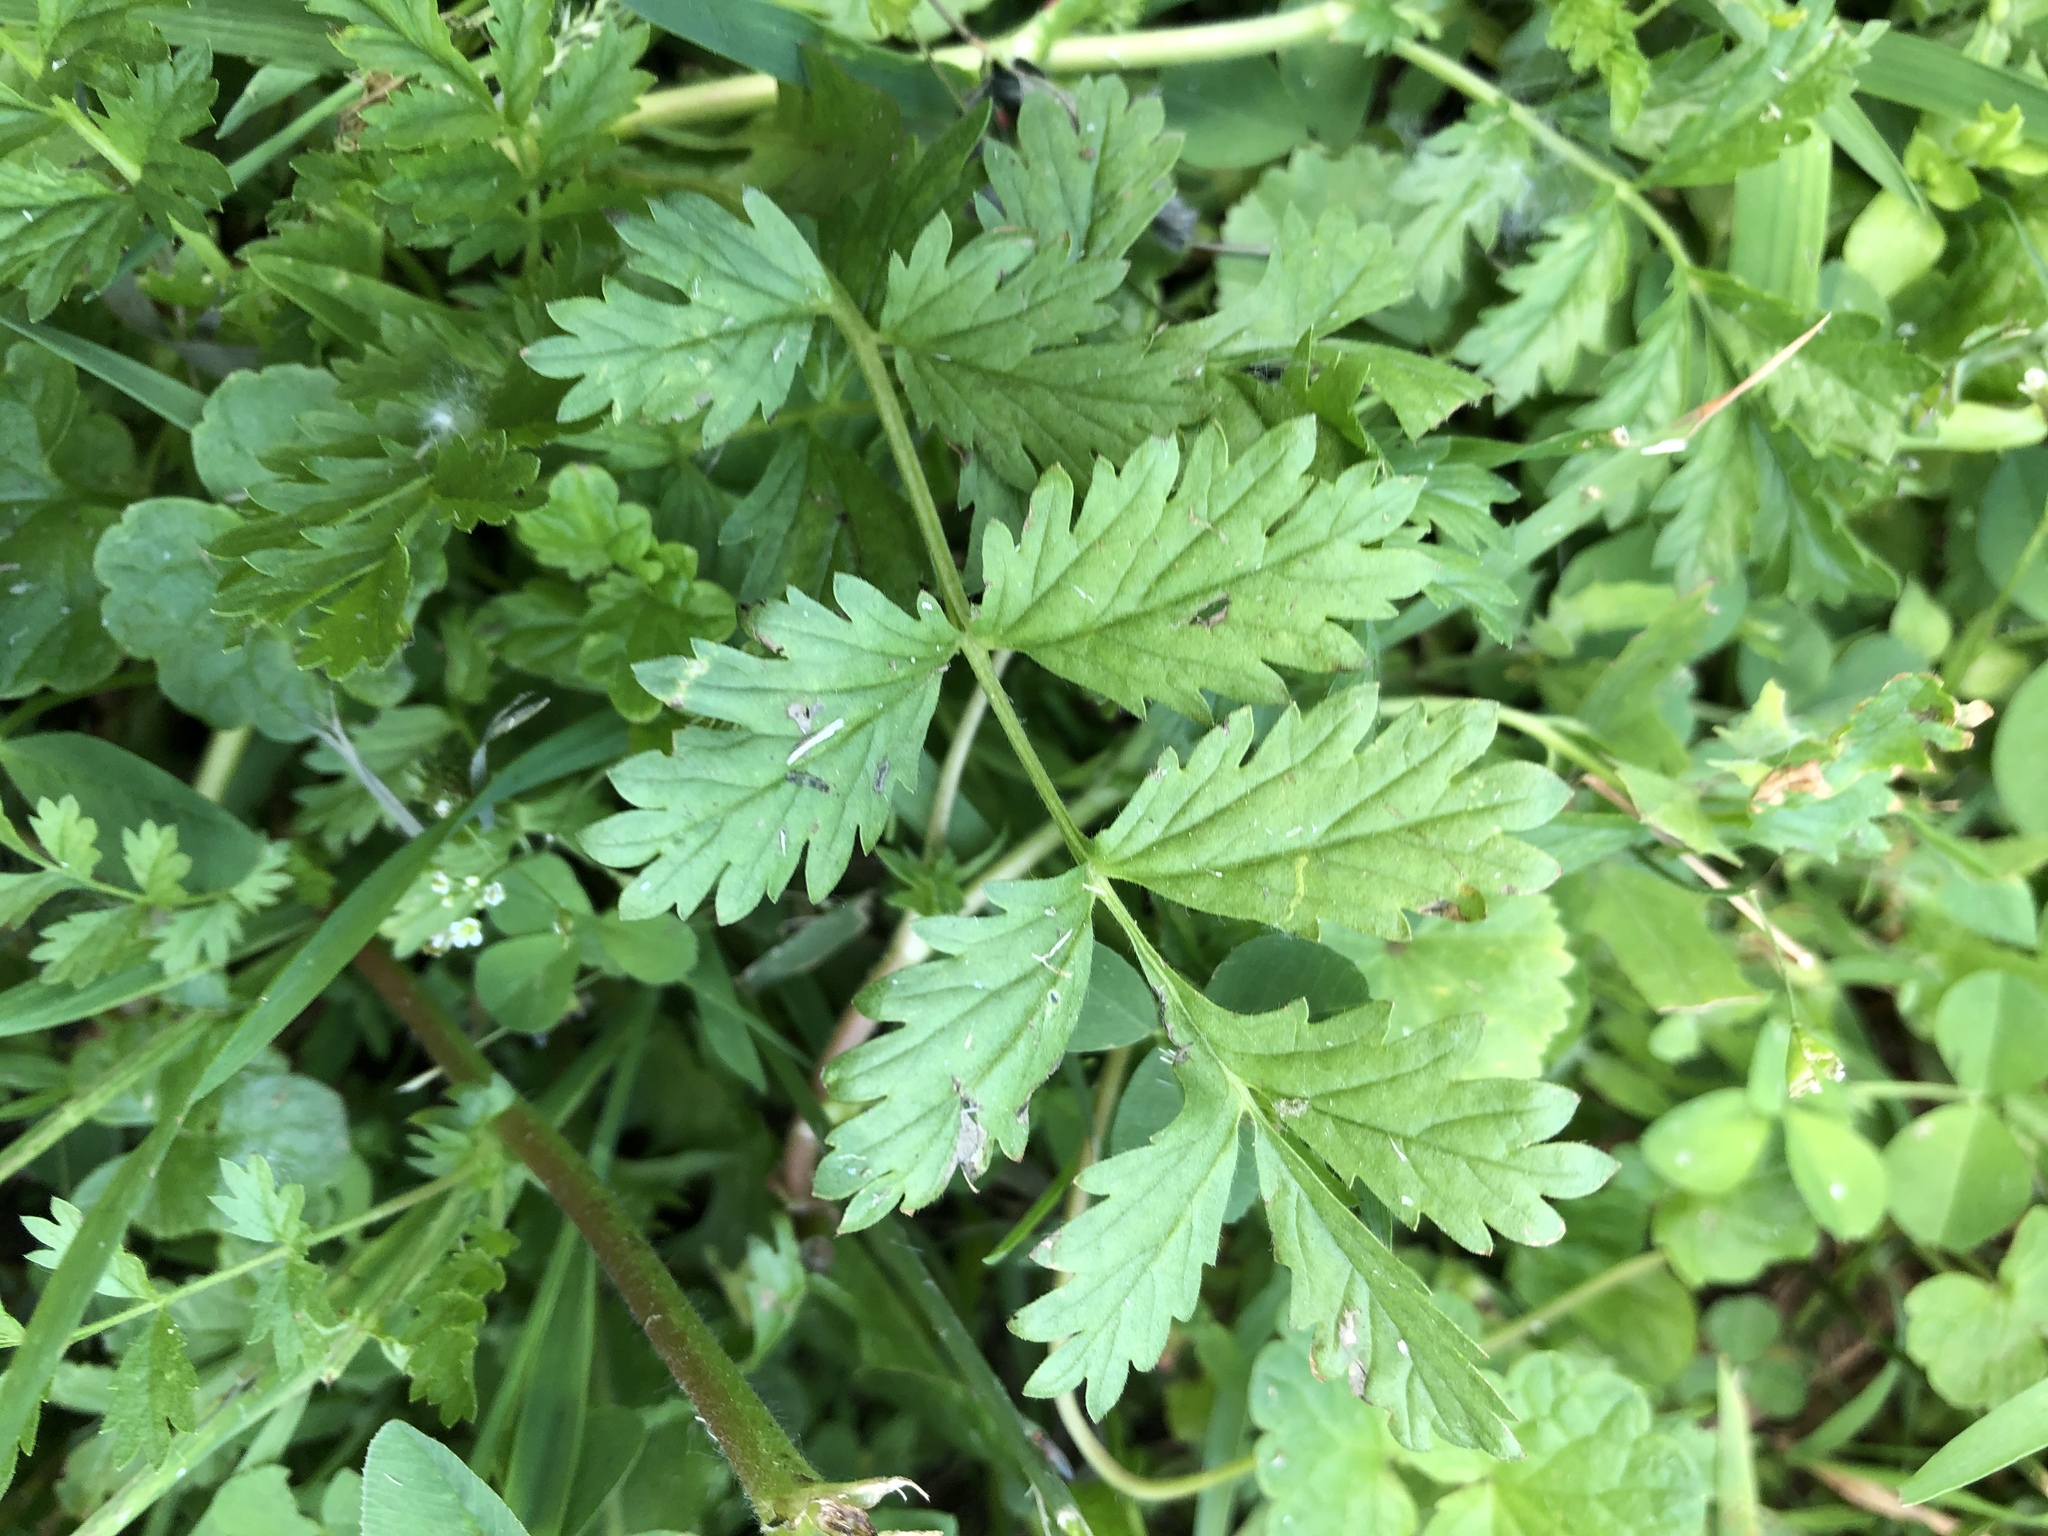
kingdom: Plantae
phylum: Tracheophyta
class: Magnoliopsida
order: Rosales
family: Rosaceae
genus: Potentilla
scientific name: Potentilla supina
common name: Prostrate cinquefoil
